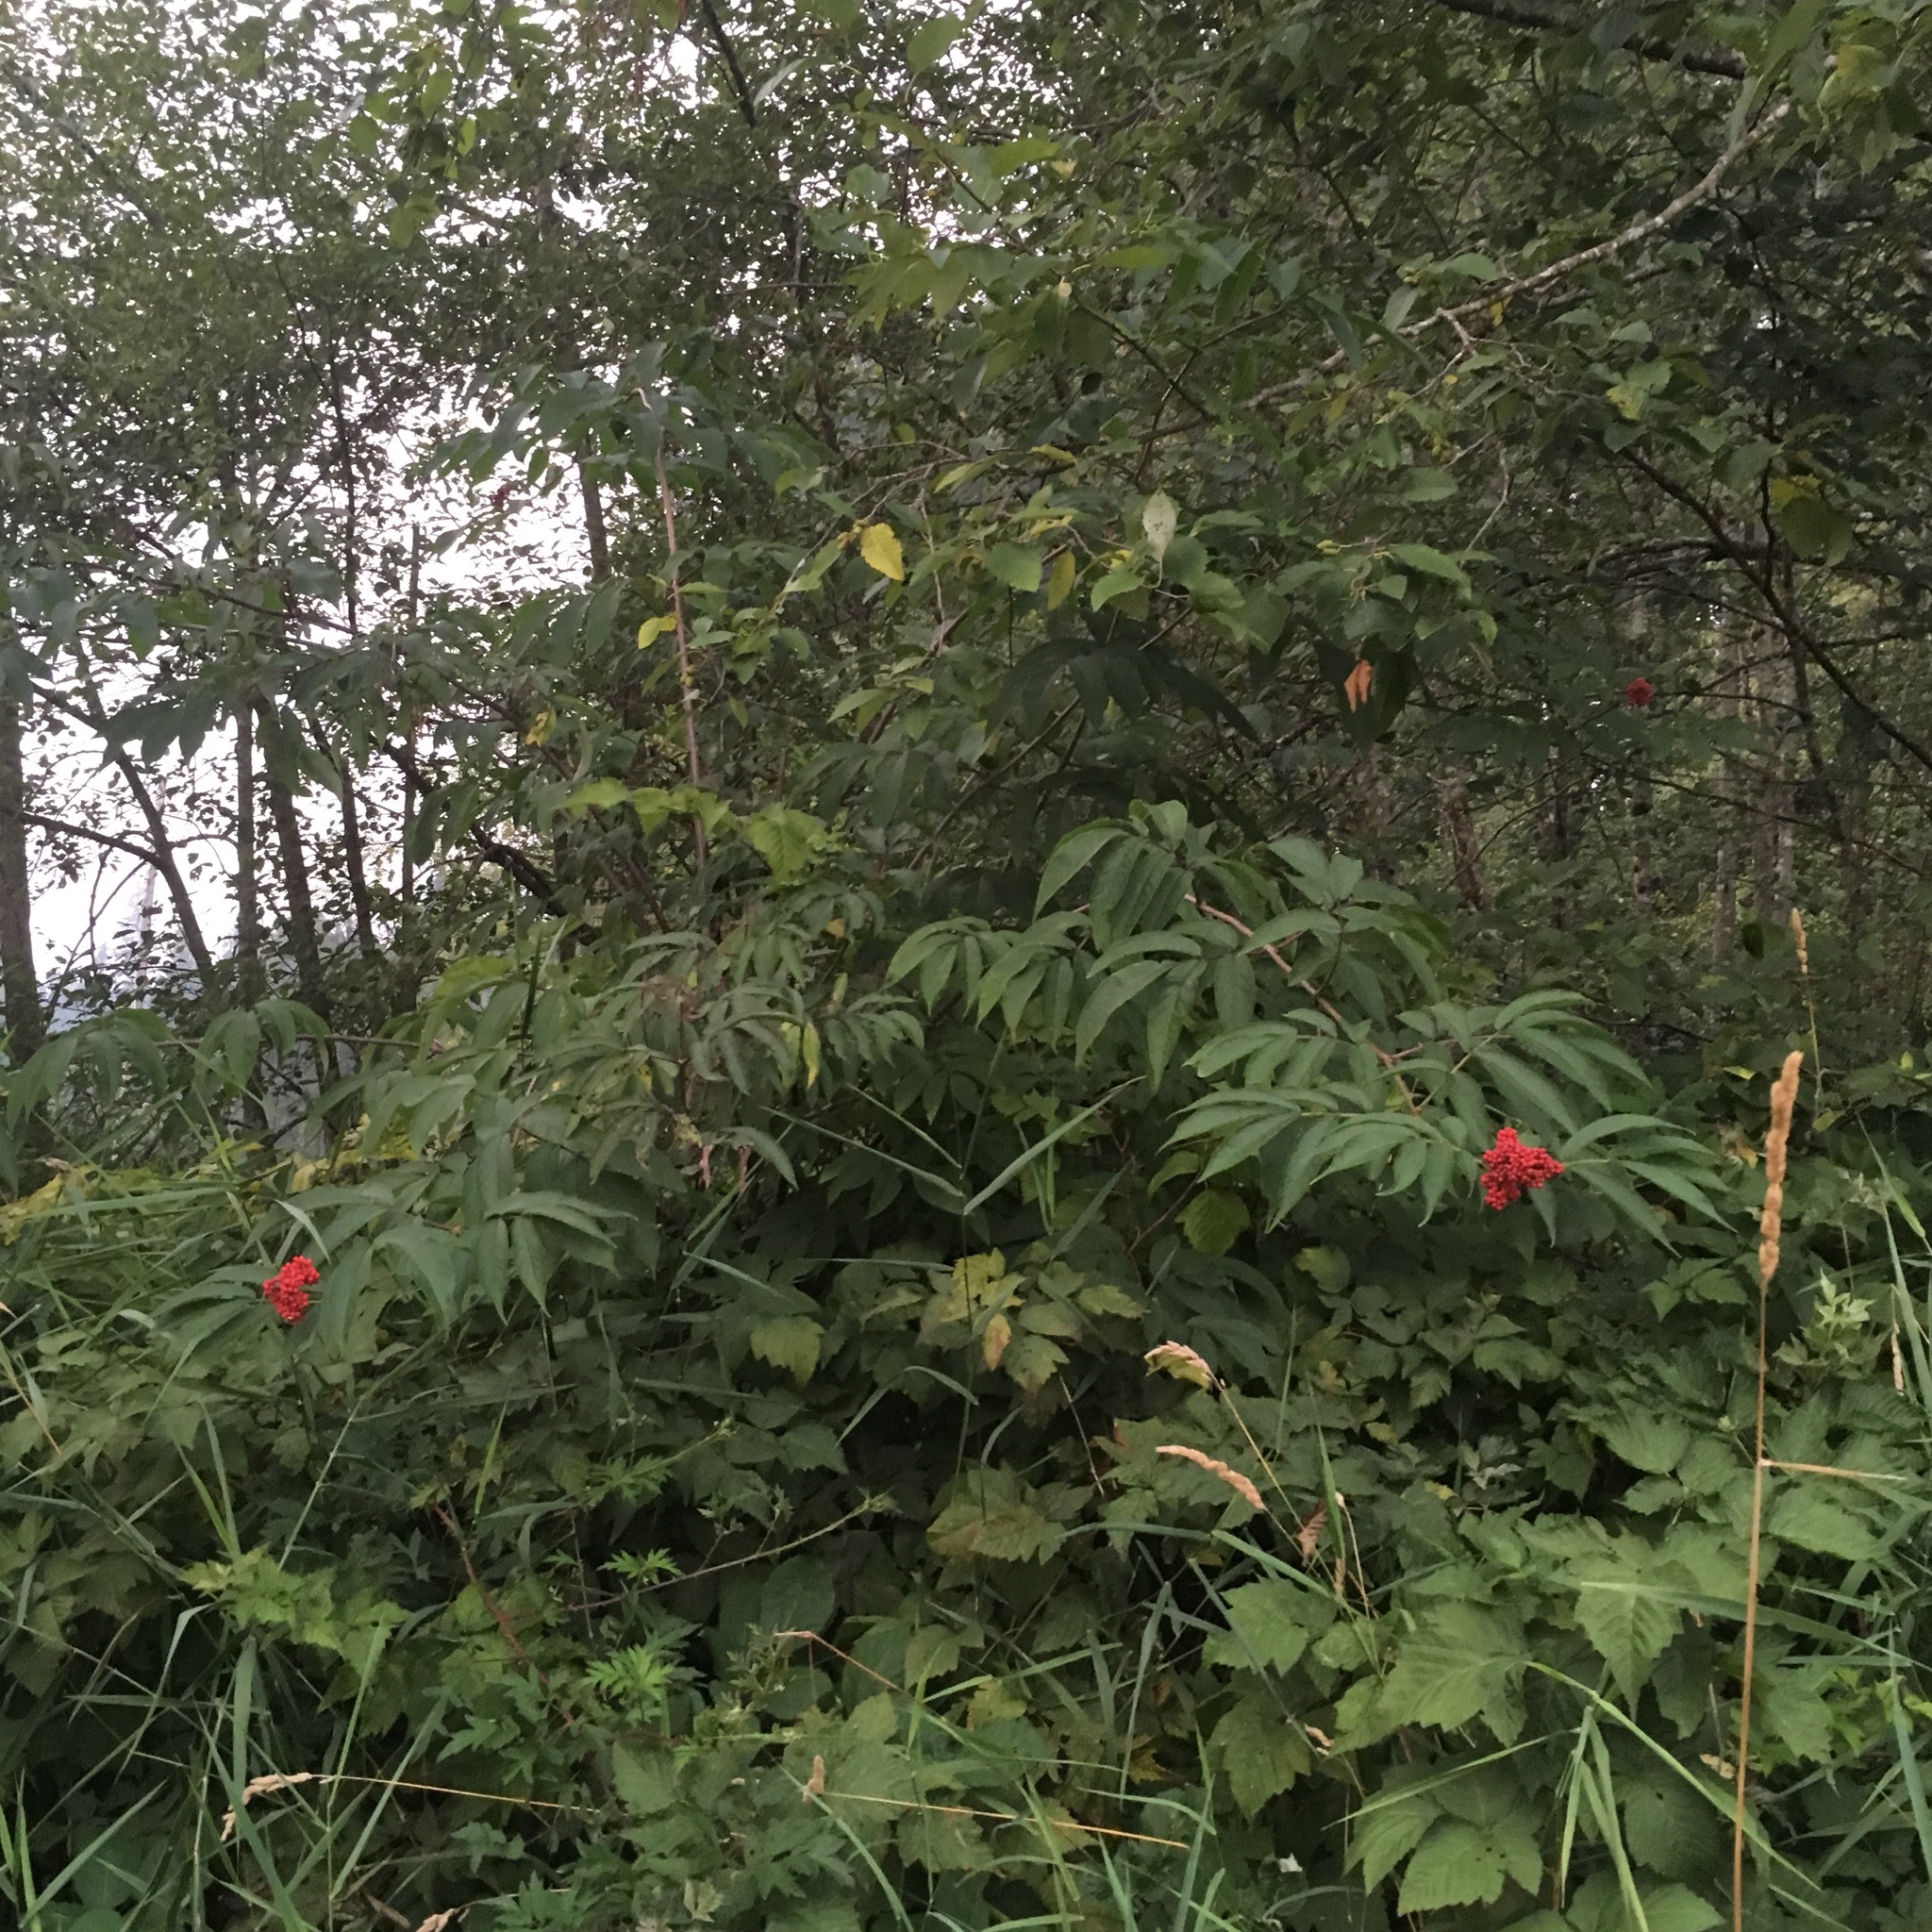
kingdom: Plantae
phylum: Tracheophyta
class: Magnoliopsida
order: Dipsacales
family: Viburnaceae
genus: Sambucus
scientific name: Sambucus racemosa
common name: Red-berried elder
